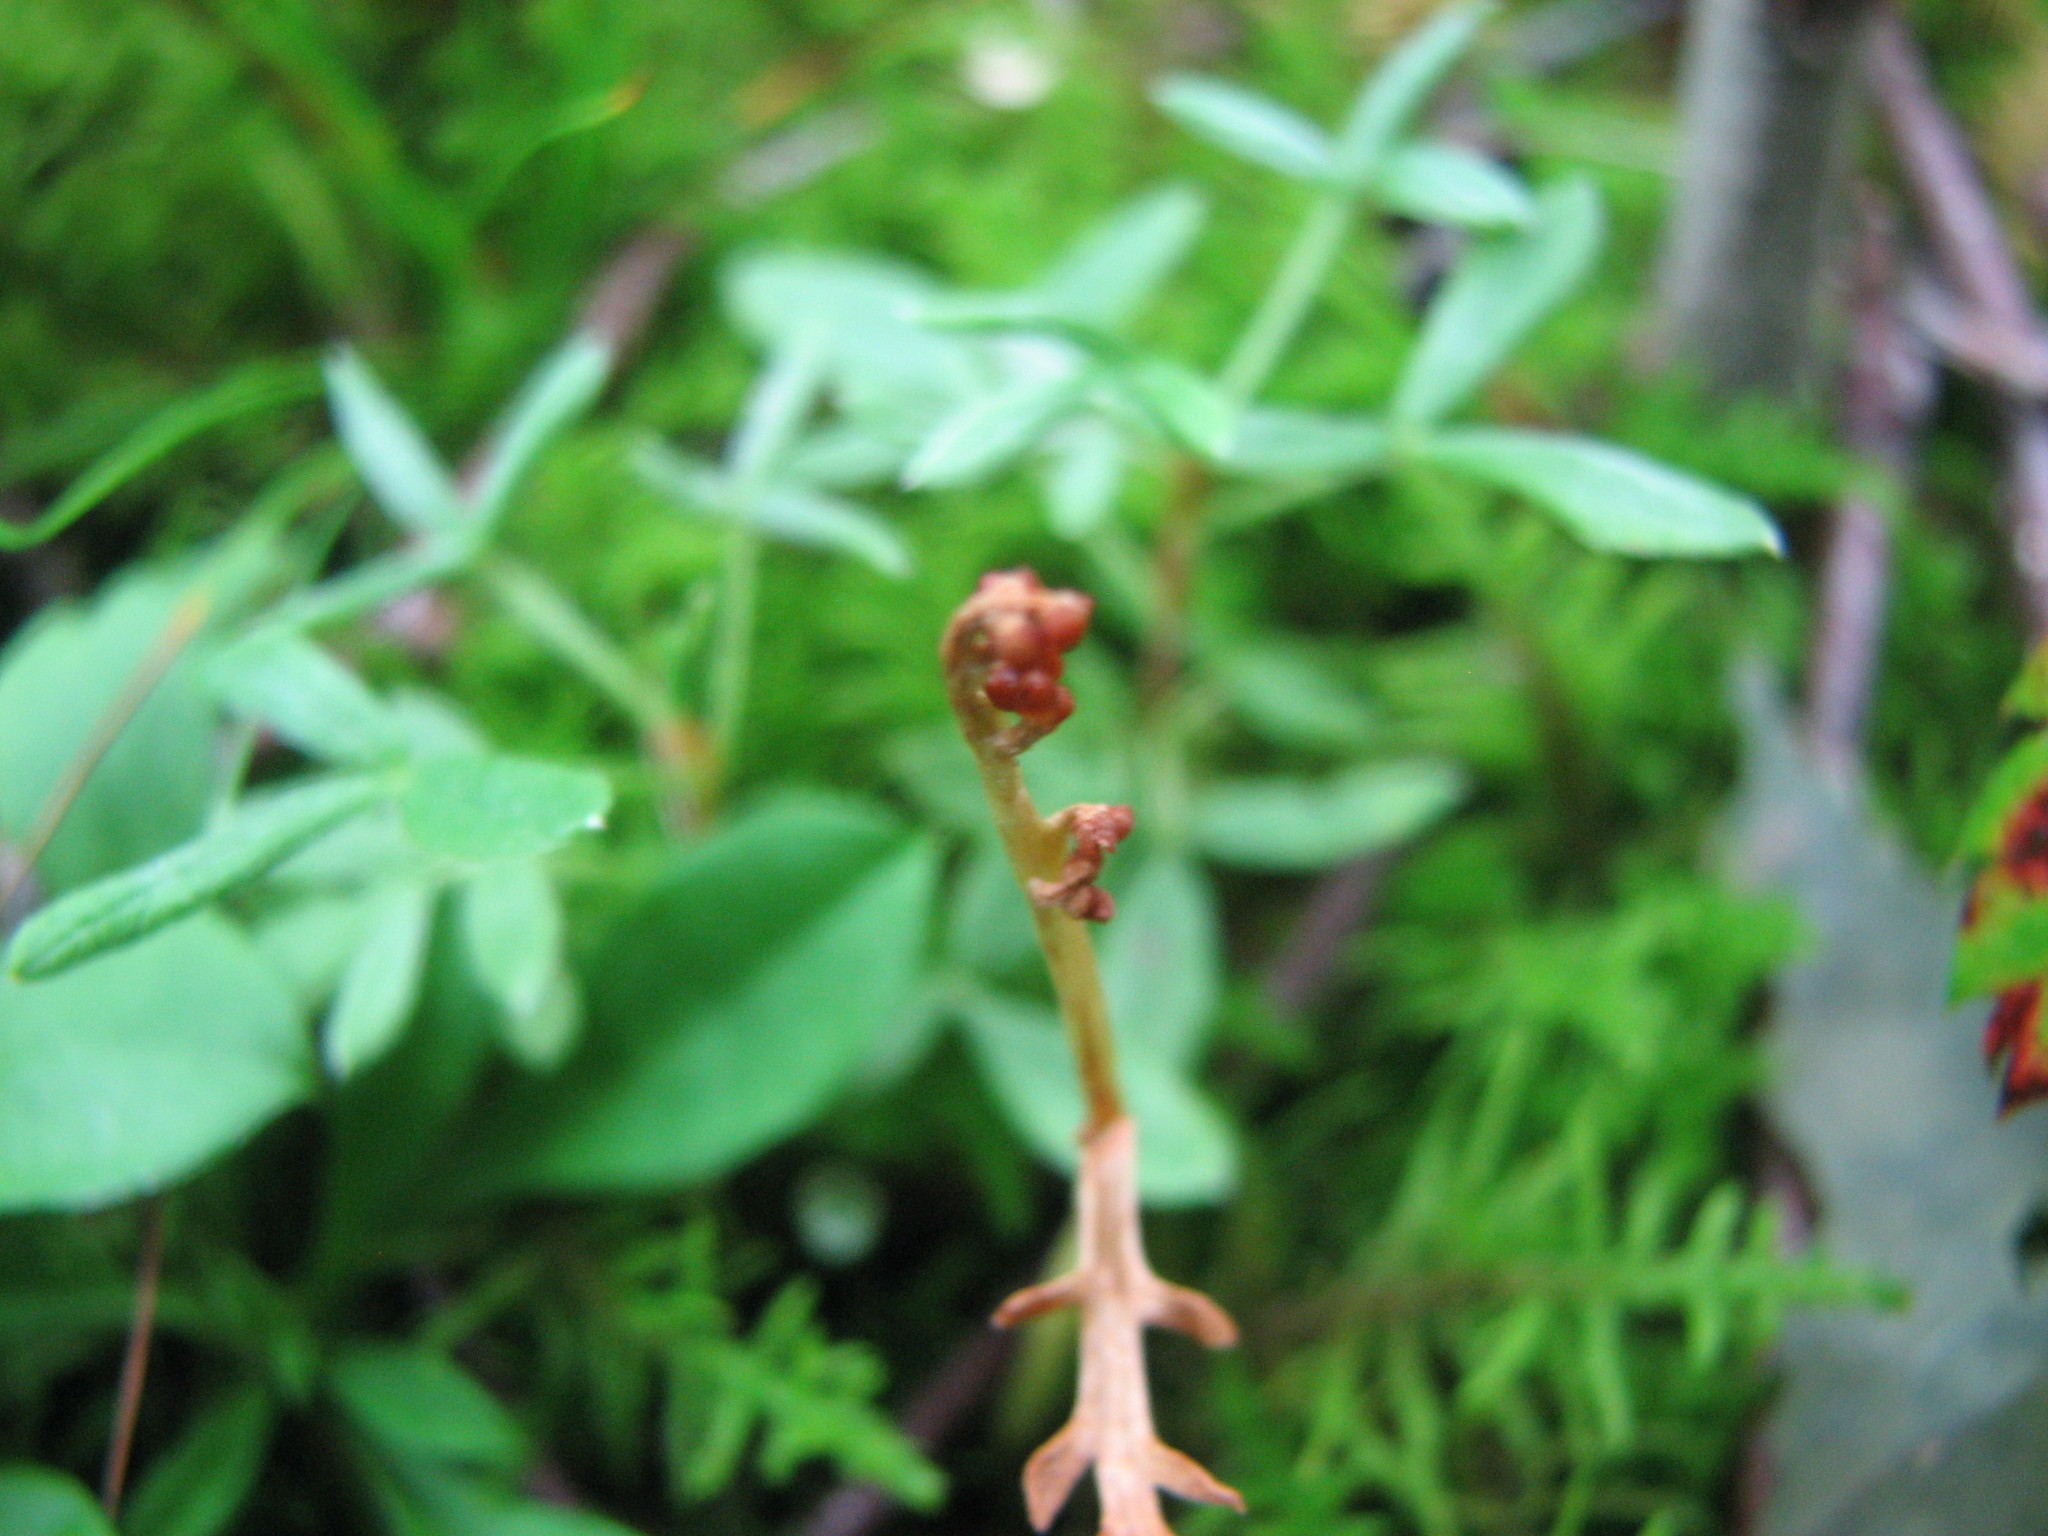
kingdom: Plantae
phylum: Tracheophyta
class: Polypodiopsida
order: Ophioglossales
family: Ophioglossaceae
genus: Botrychium
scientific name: Botrychium ascendens
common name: Ascending grapefern
